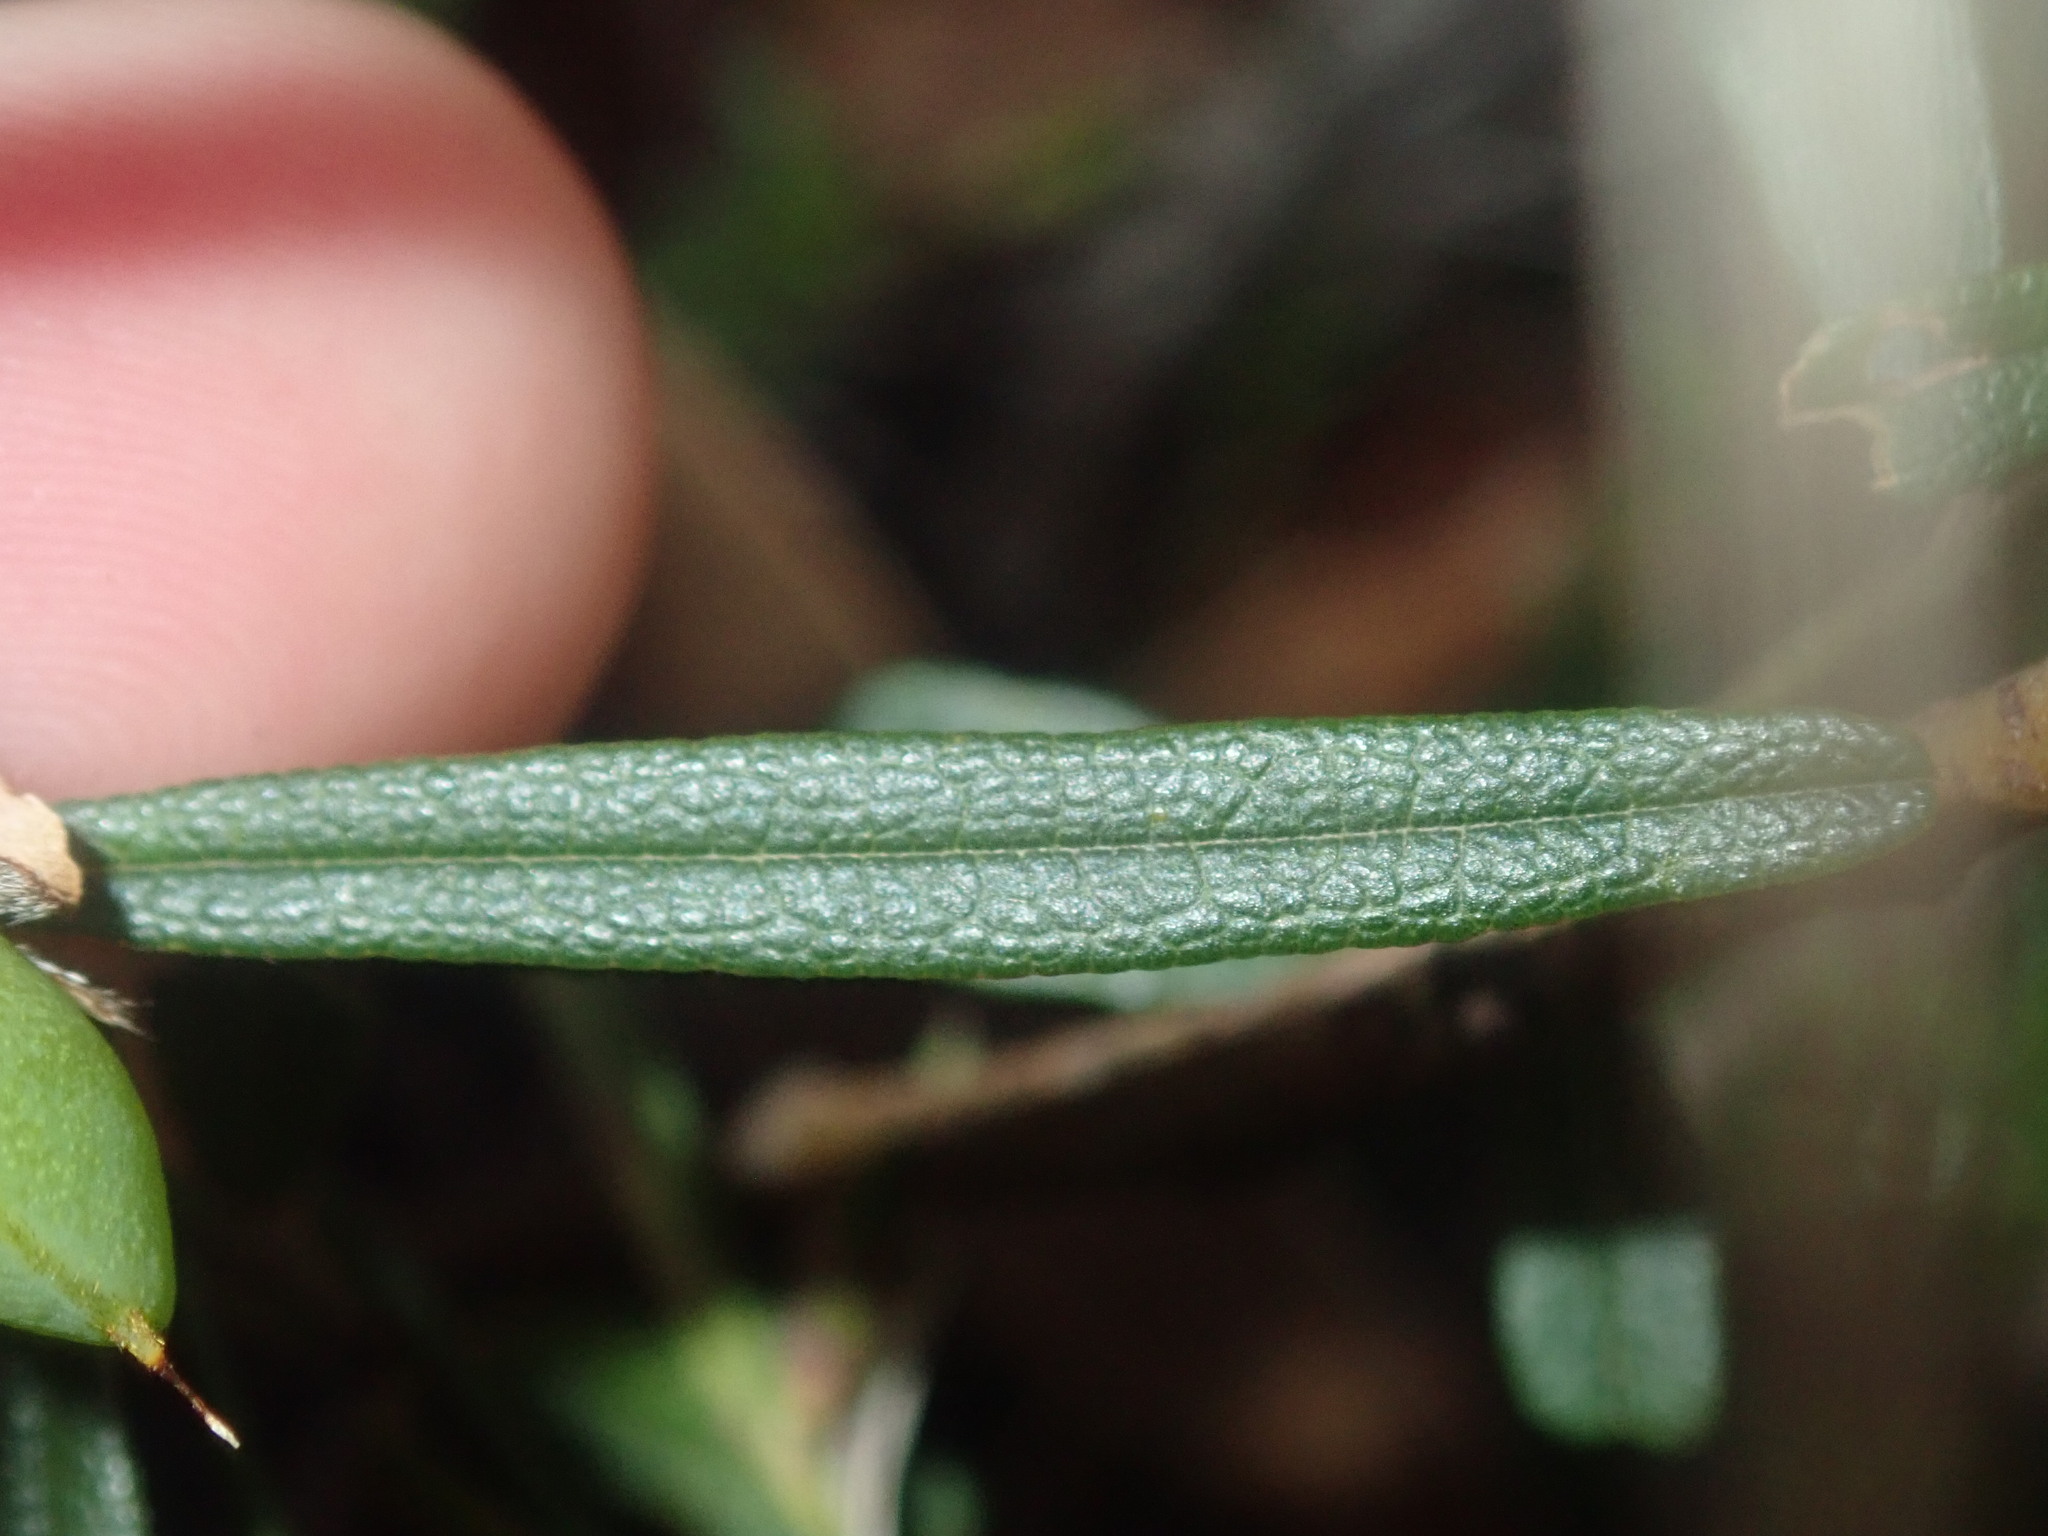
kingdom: Plantae
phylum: Tracheophyta
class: Magnoliopsida
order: Fabales
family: Fabaceae
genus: Hovea
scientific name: Hovea linearis
